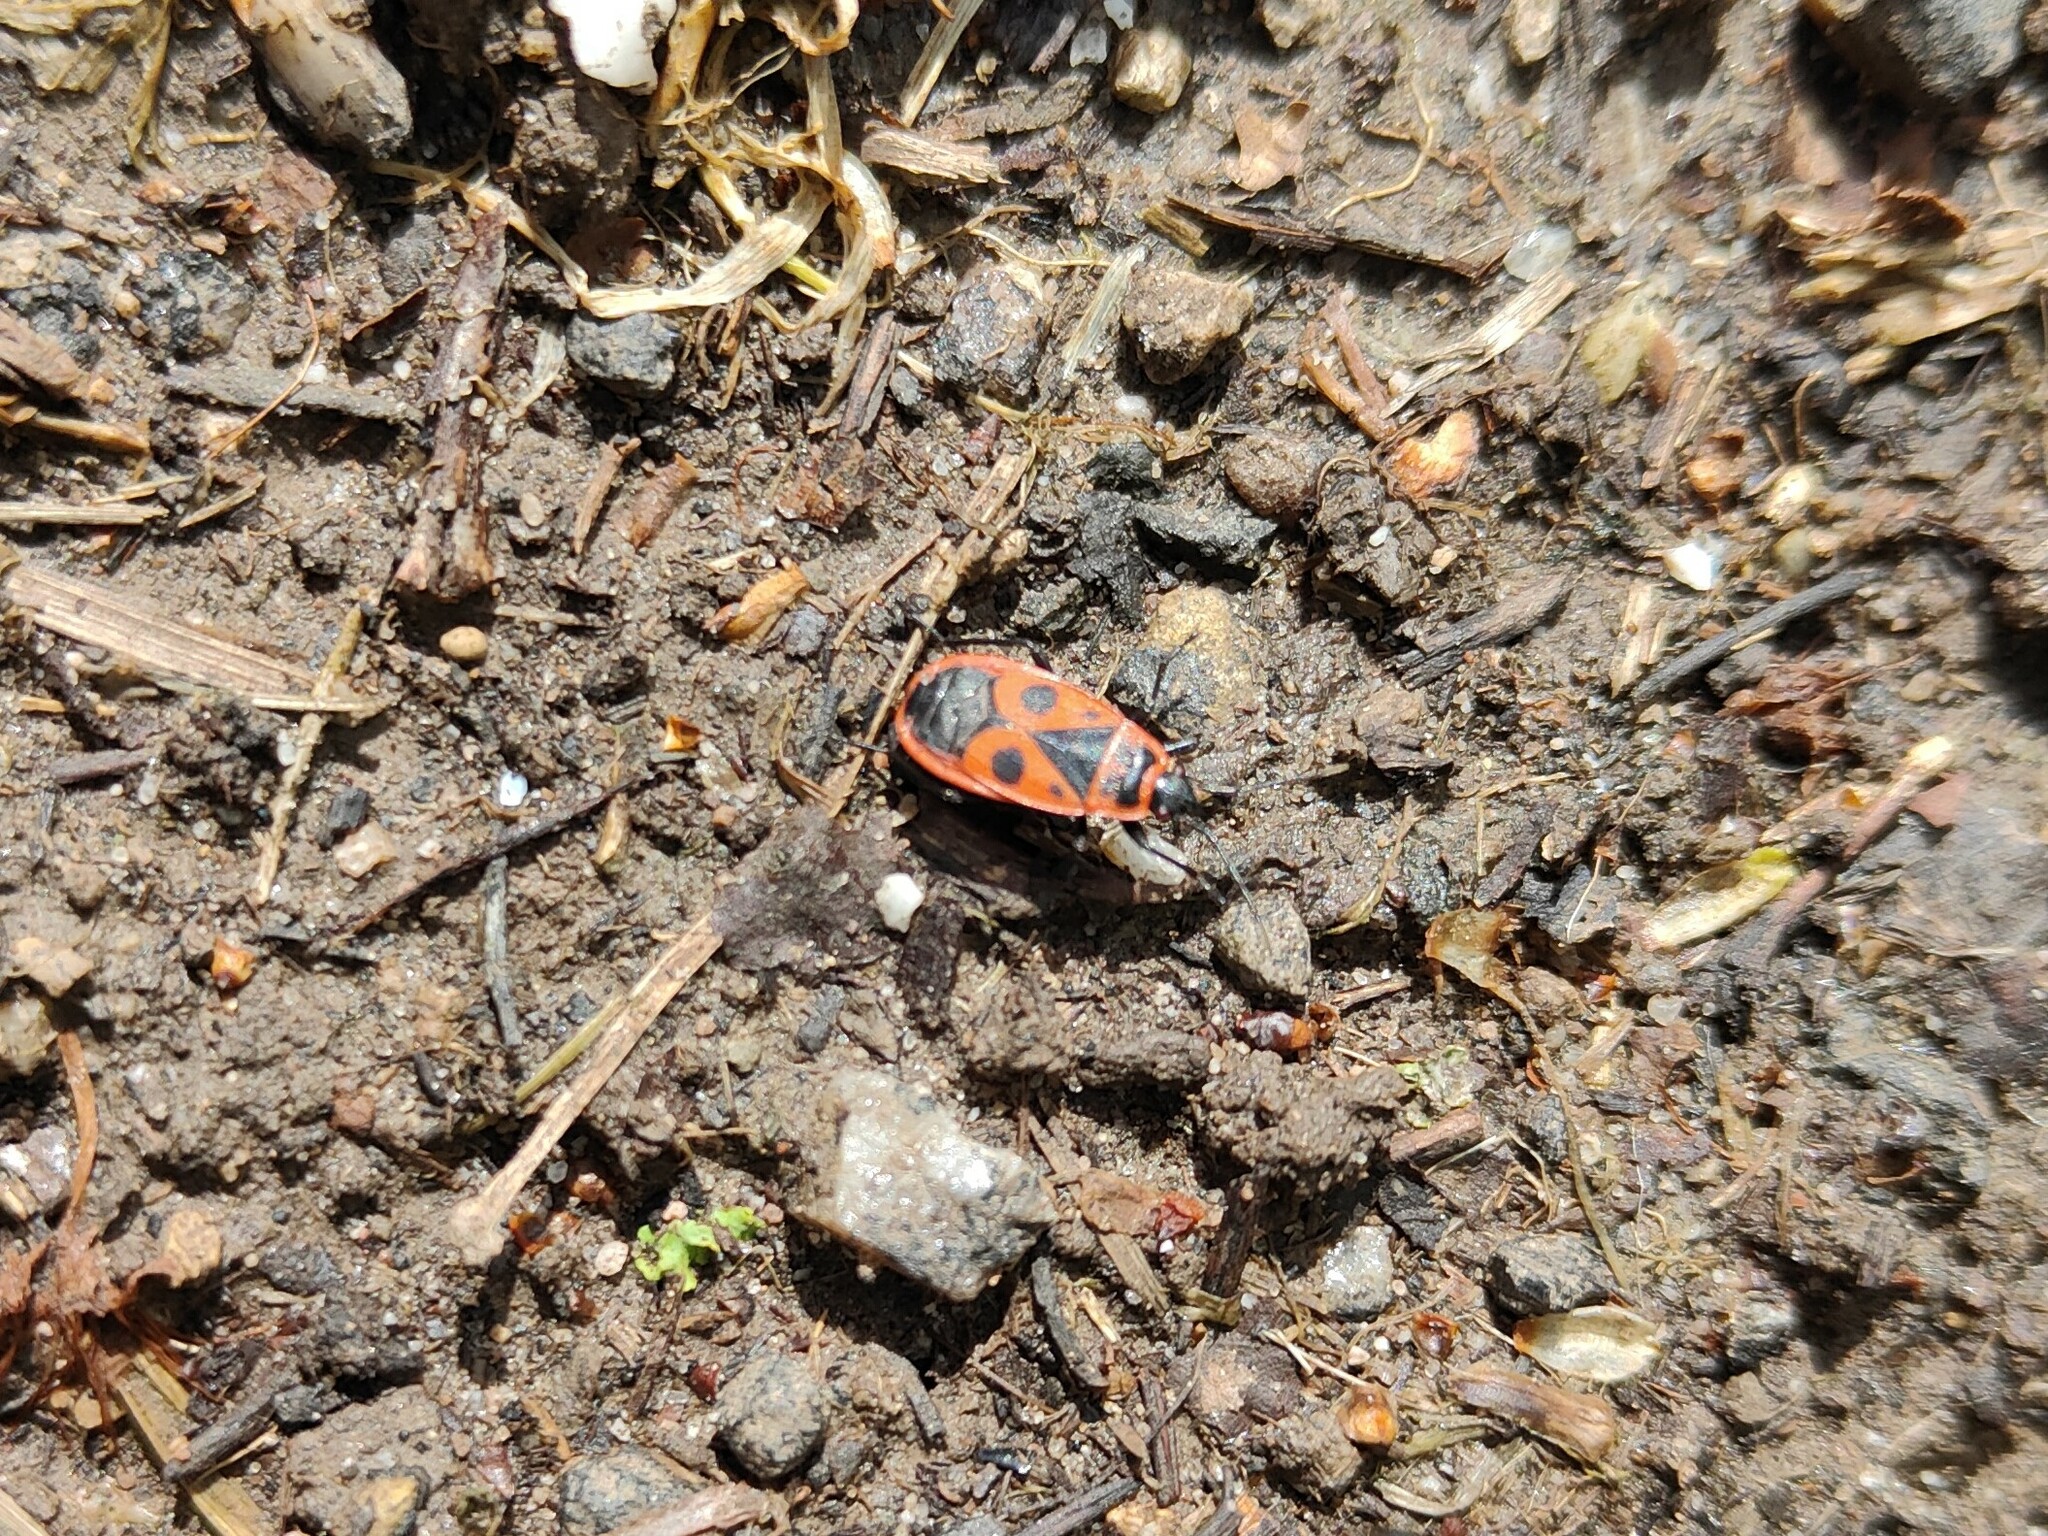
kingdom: Animalia
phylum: Arthropoda
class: Insecta
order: Hemiptera
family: Pyrrhocoridae
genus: Pyrrhocoris
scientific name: Pyrrhocoris apterus
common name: Firebug
